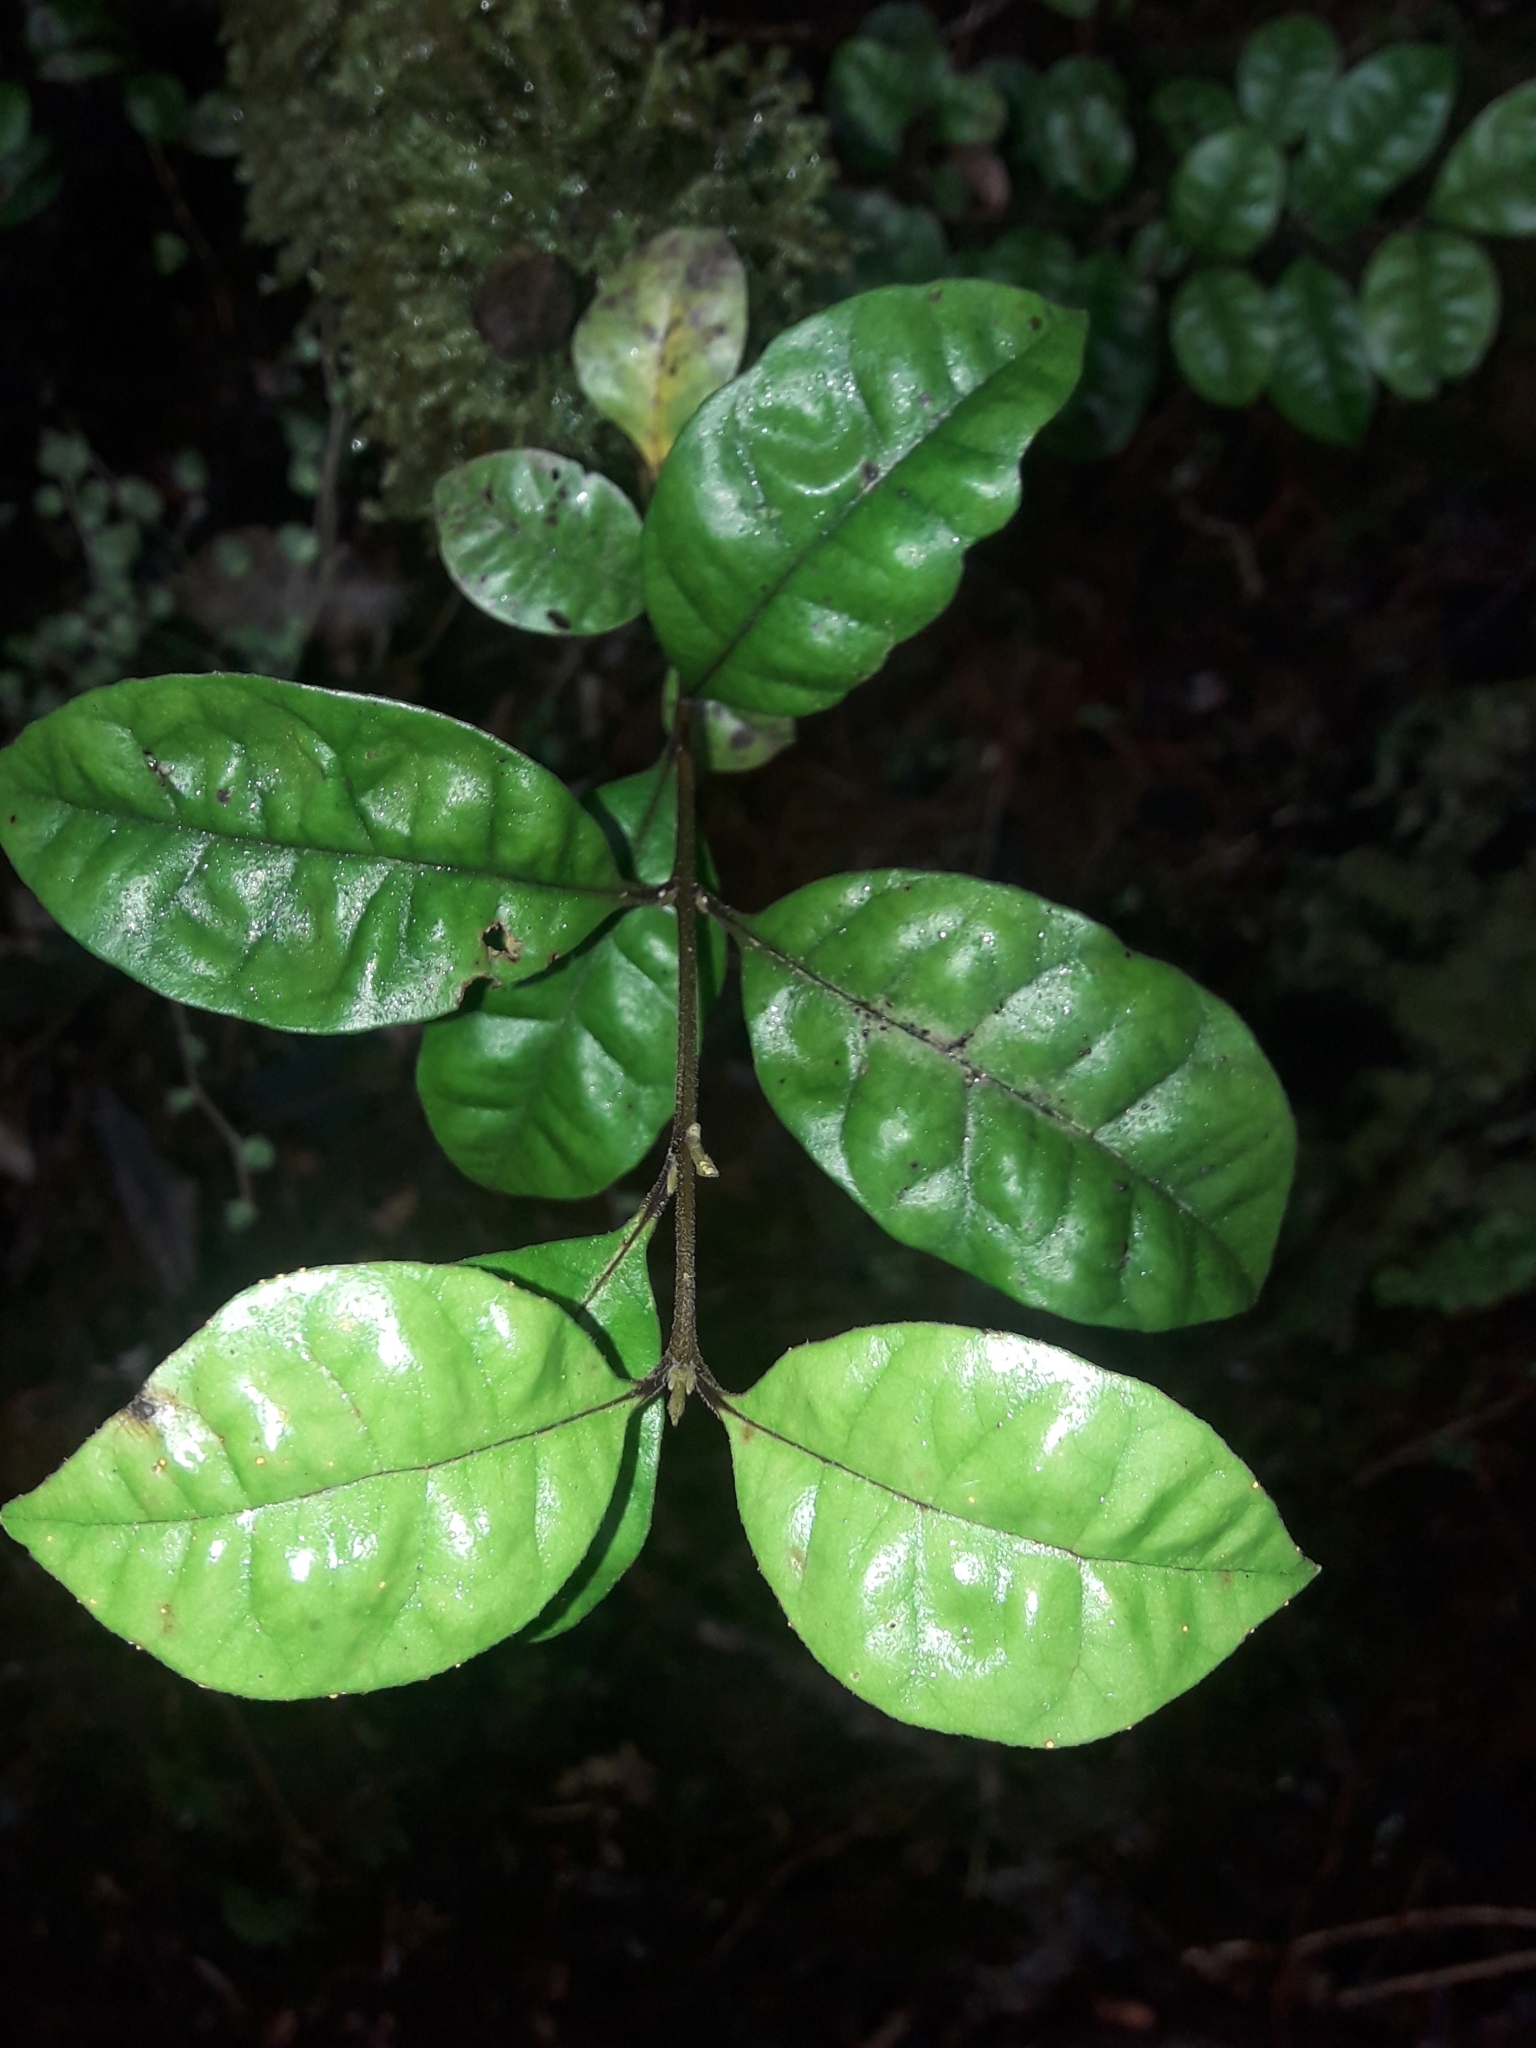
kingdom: Plantae
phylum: Tracheophyta
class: Magnoliopsida
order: Myrtales
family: Myrtaceae
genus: Lophomyrtus
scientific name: Lophomyrtus bullata
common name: Rama rama
